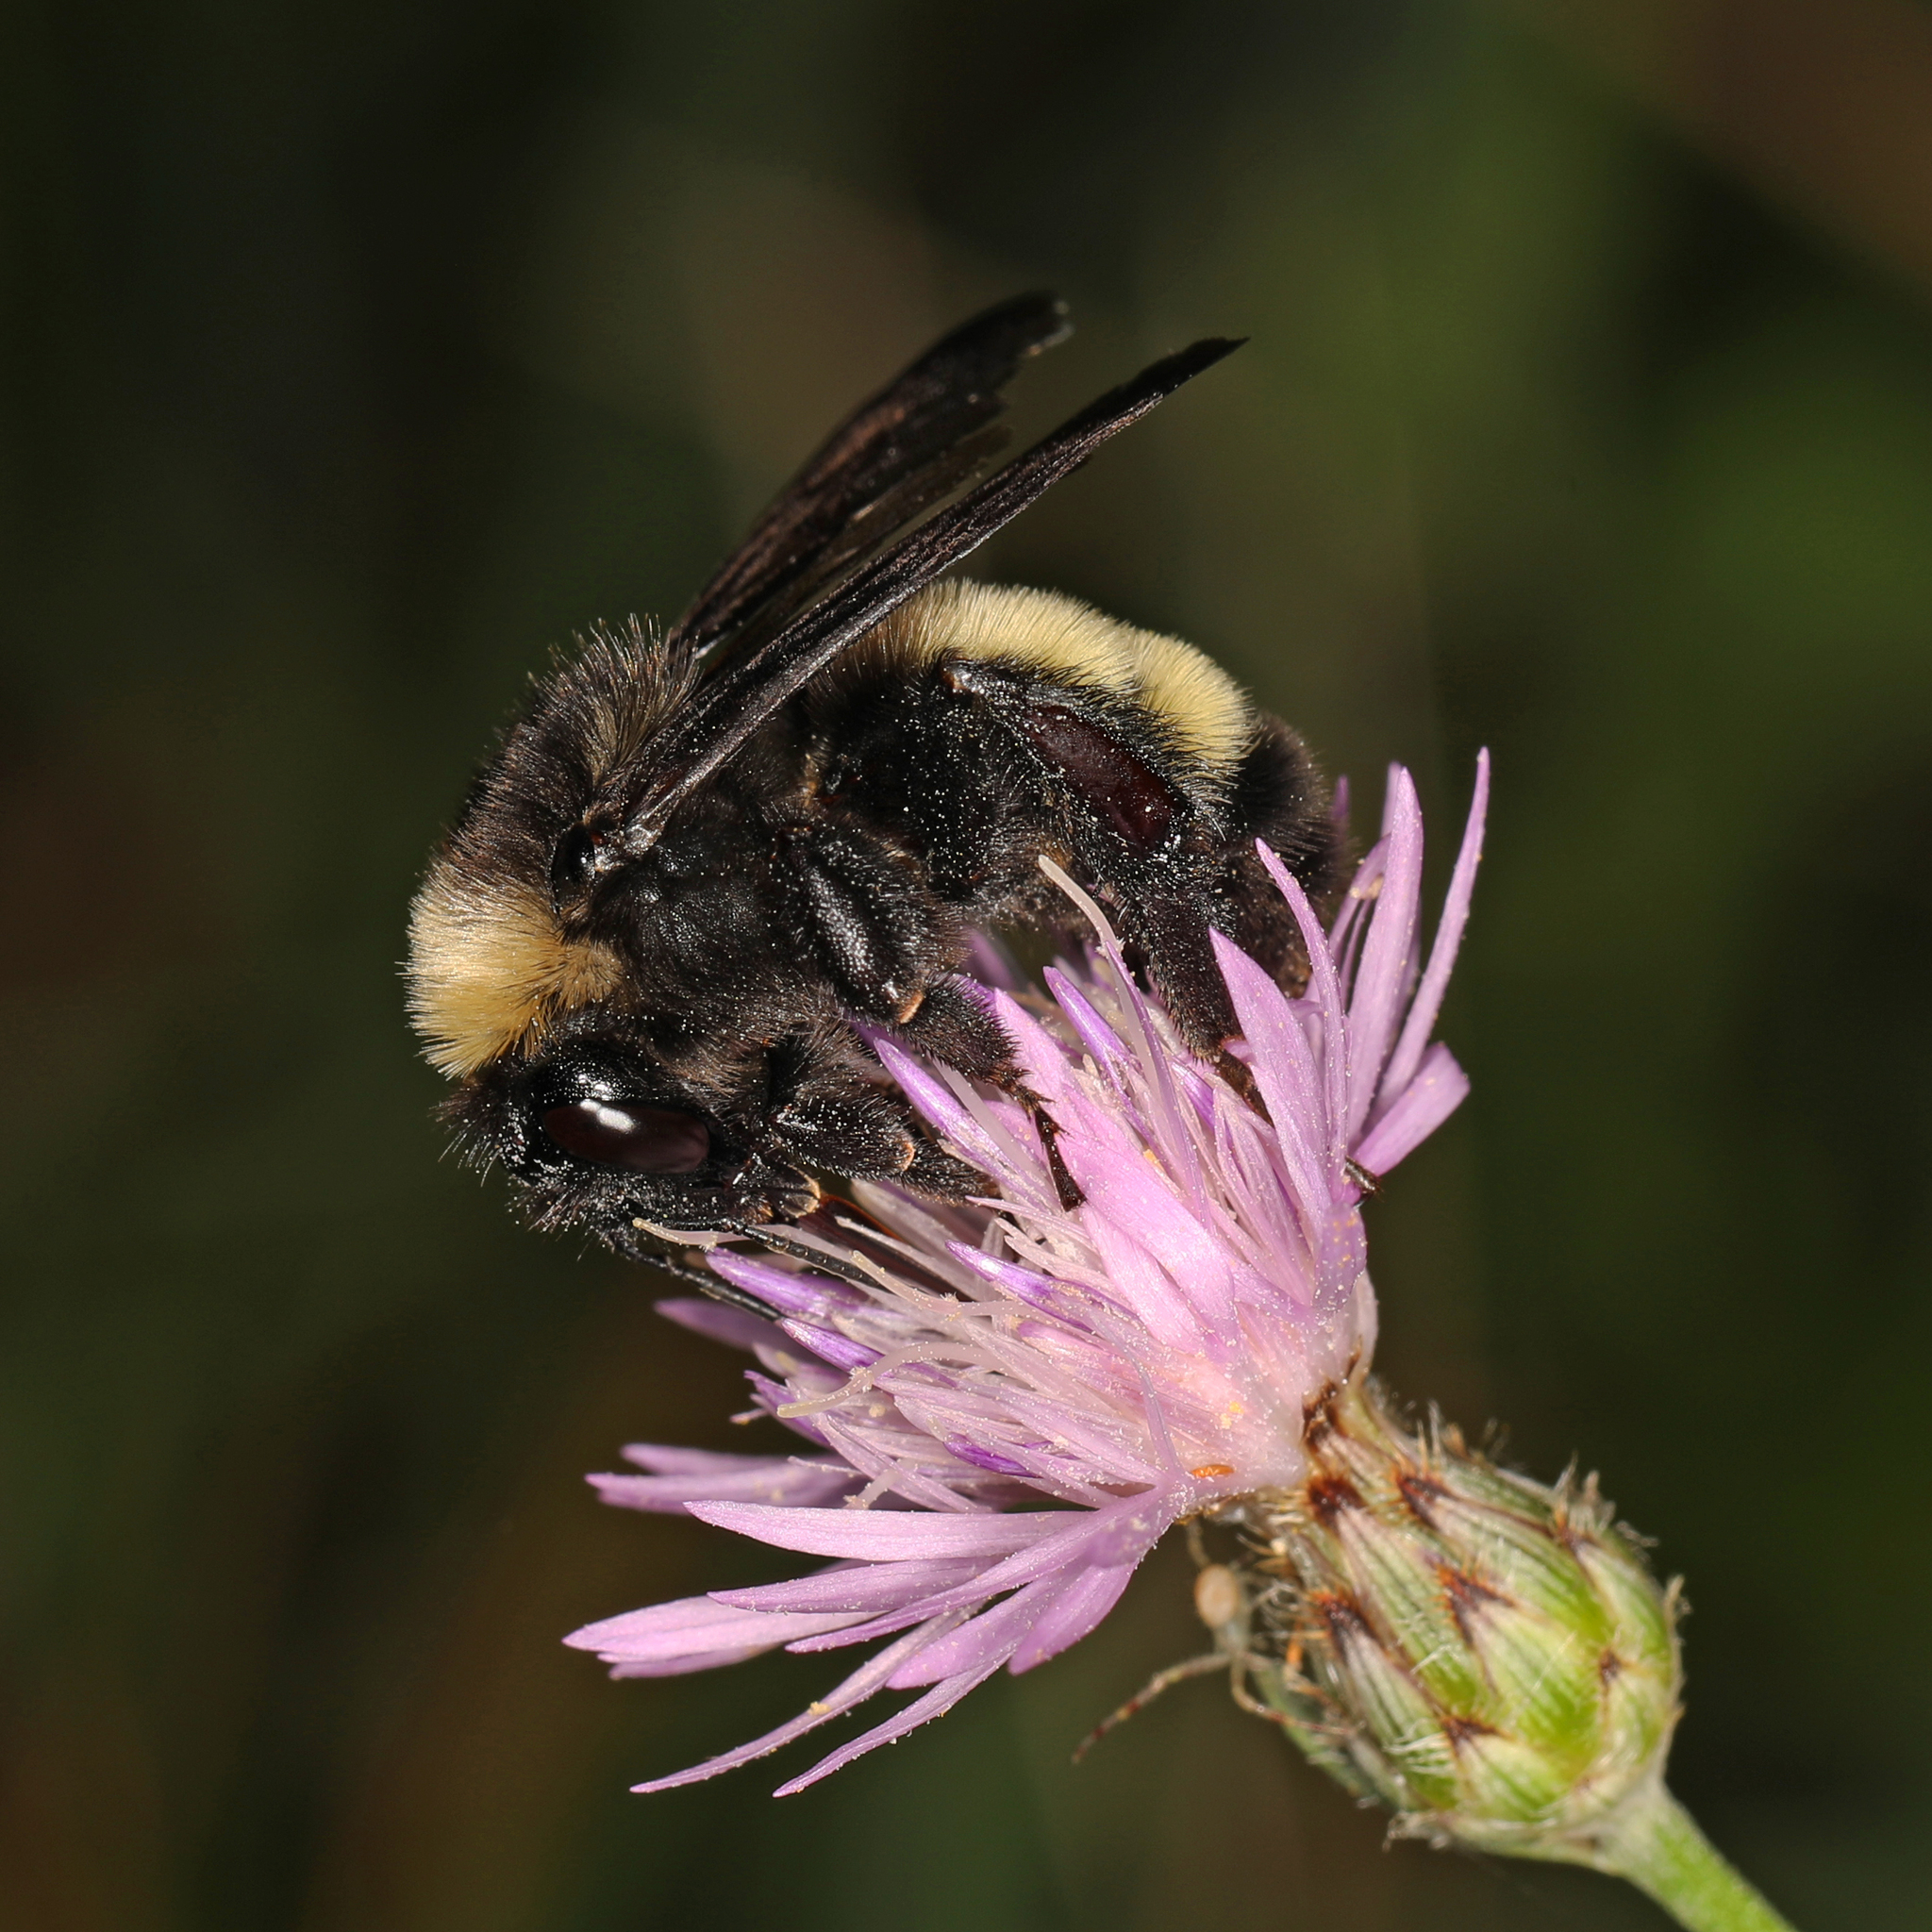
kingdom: Animalia
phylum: Arthropoda
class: Insecta
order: Hymenoptera
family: Apidae
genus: Bombus
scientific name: Bombus pensylvanicus
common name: Bumble bee
